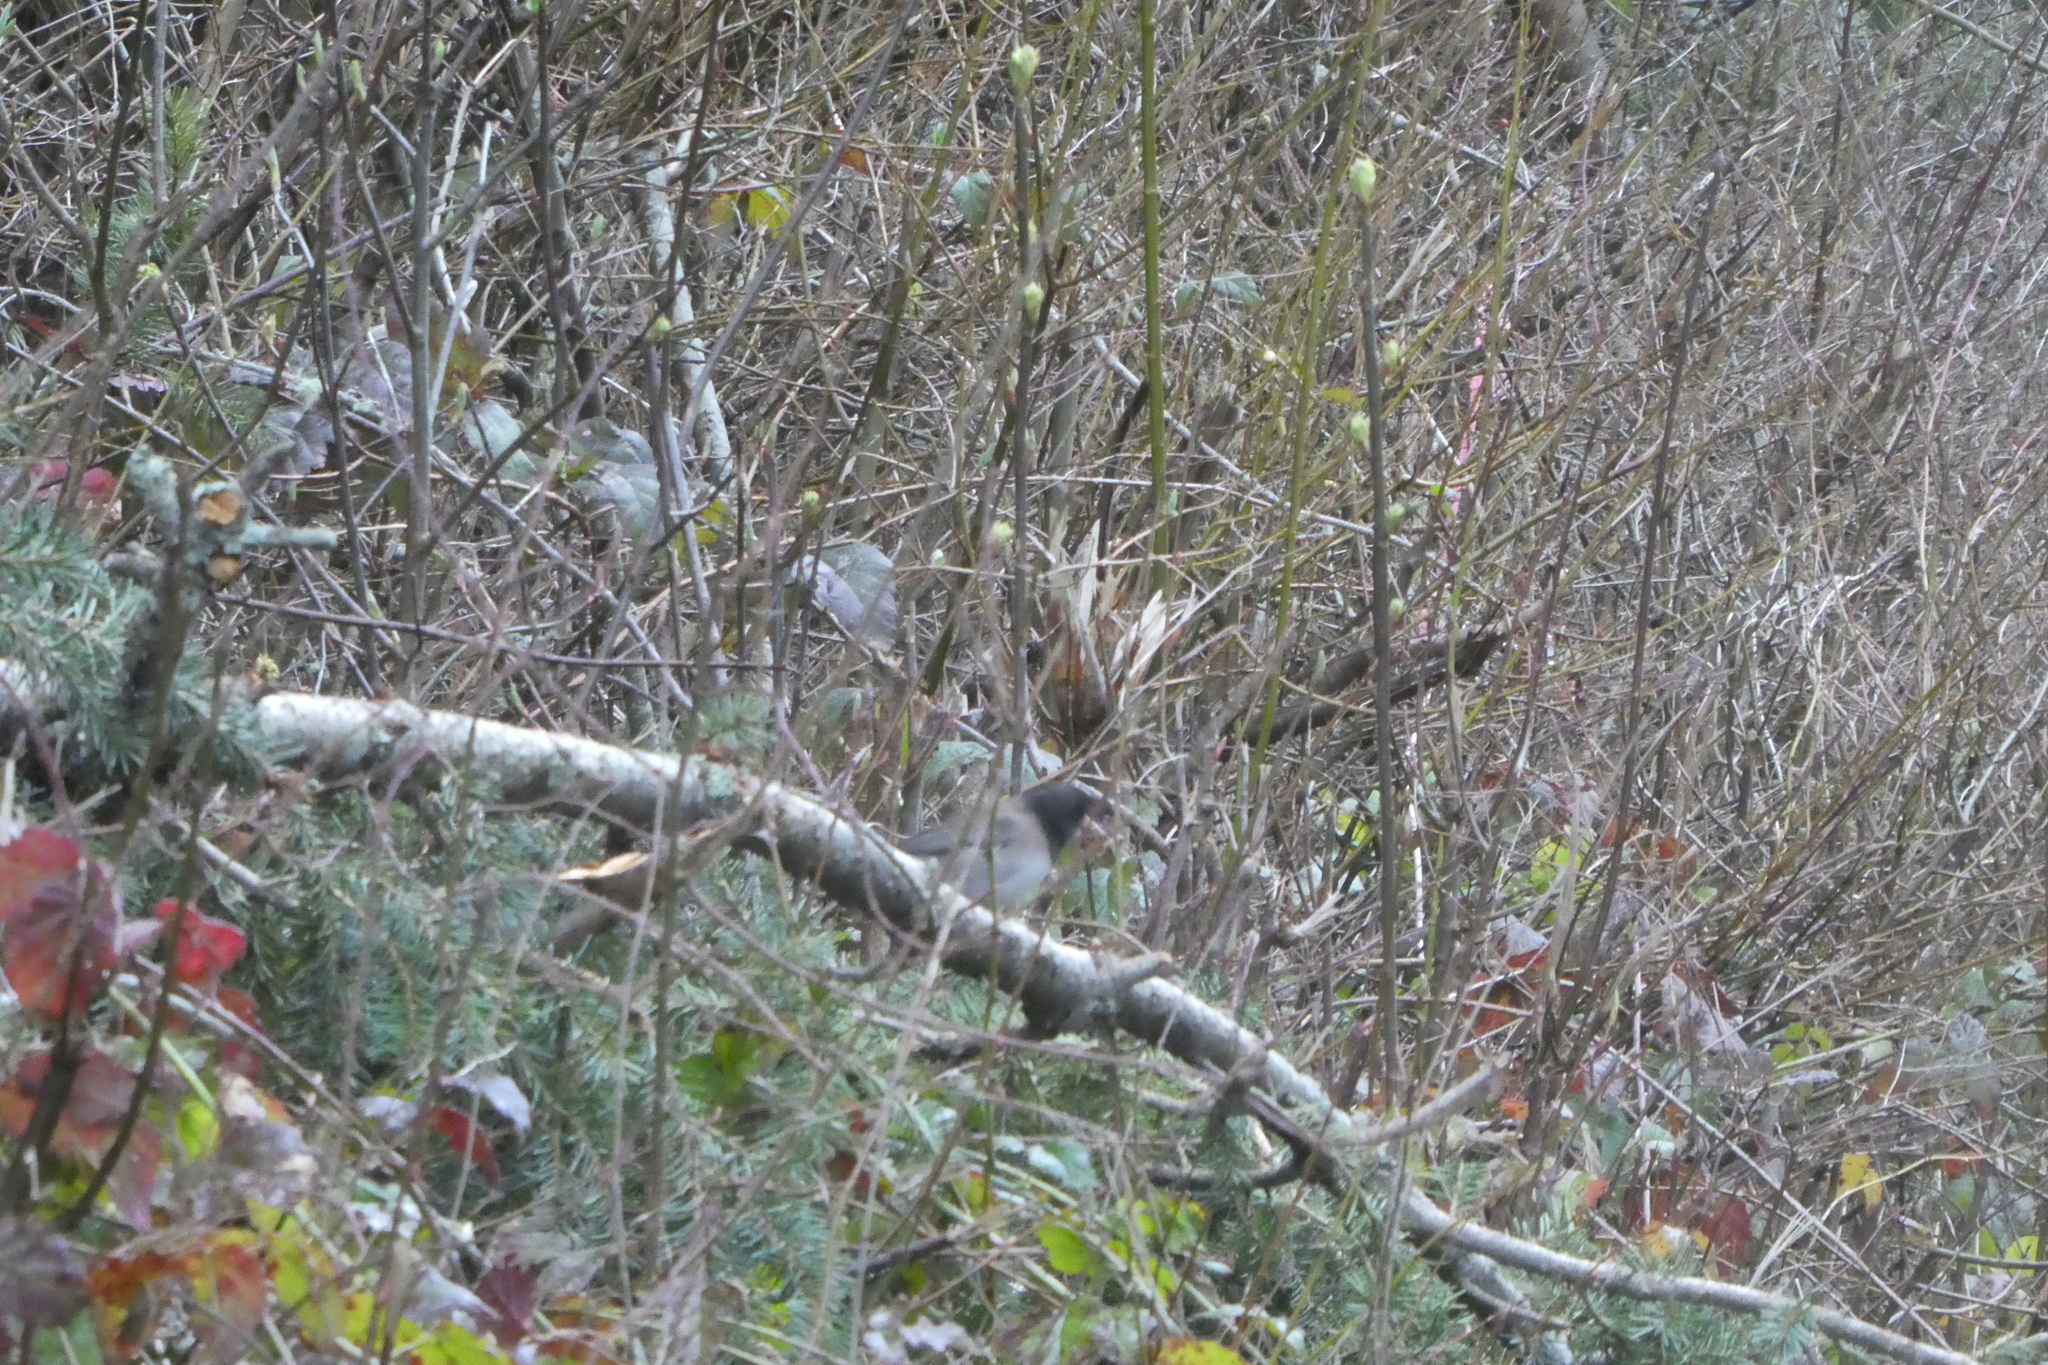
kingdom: Animalia
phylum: Chordata
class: Aves
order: Passeriformes
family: Passerellidae
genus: Junco
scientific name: Junco hyemalis
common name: Dark-eyed junco
